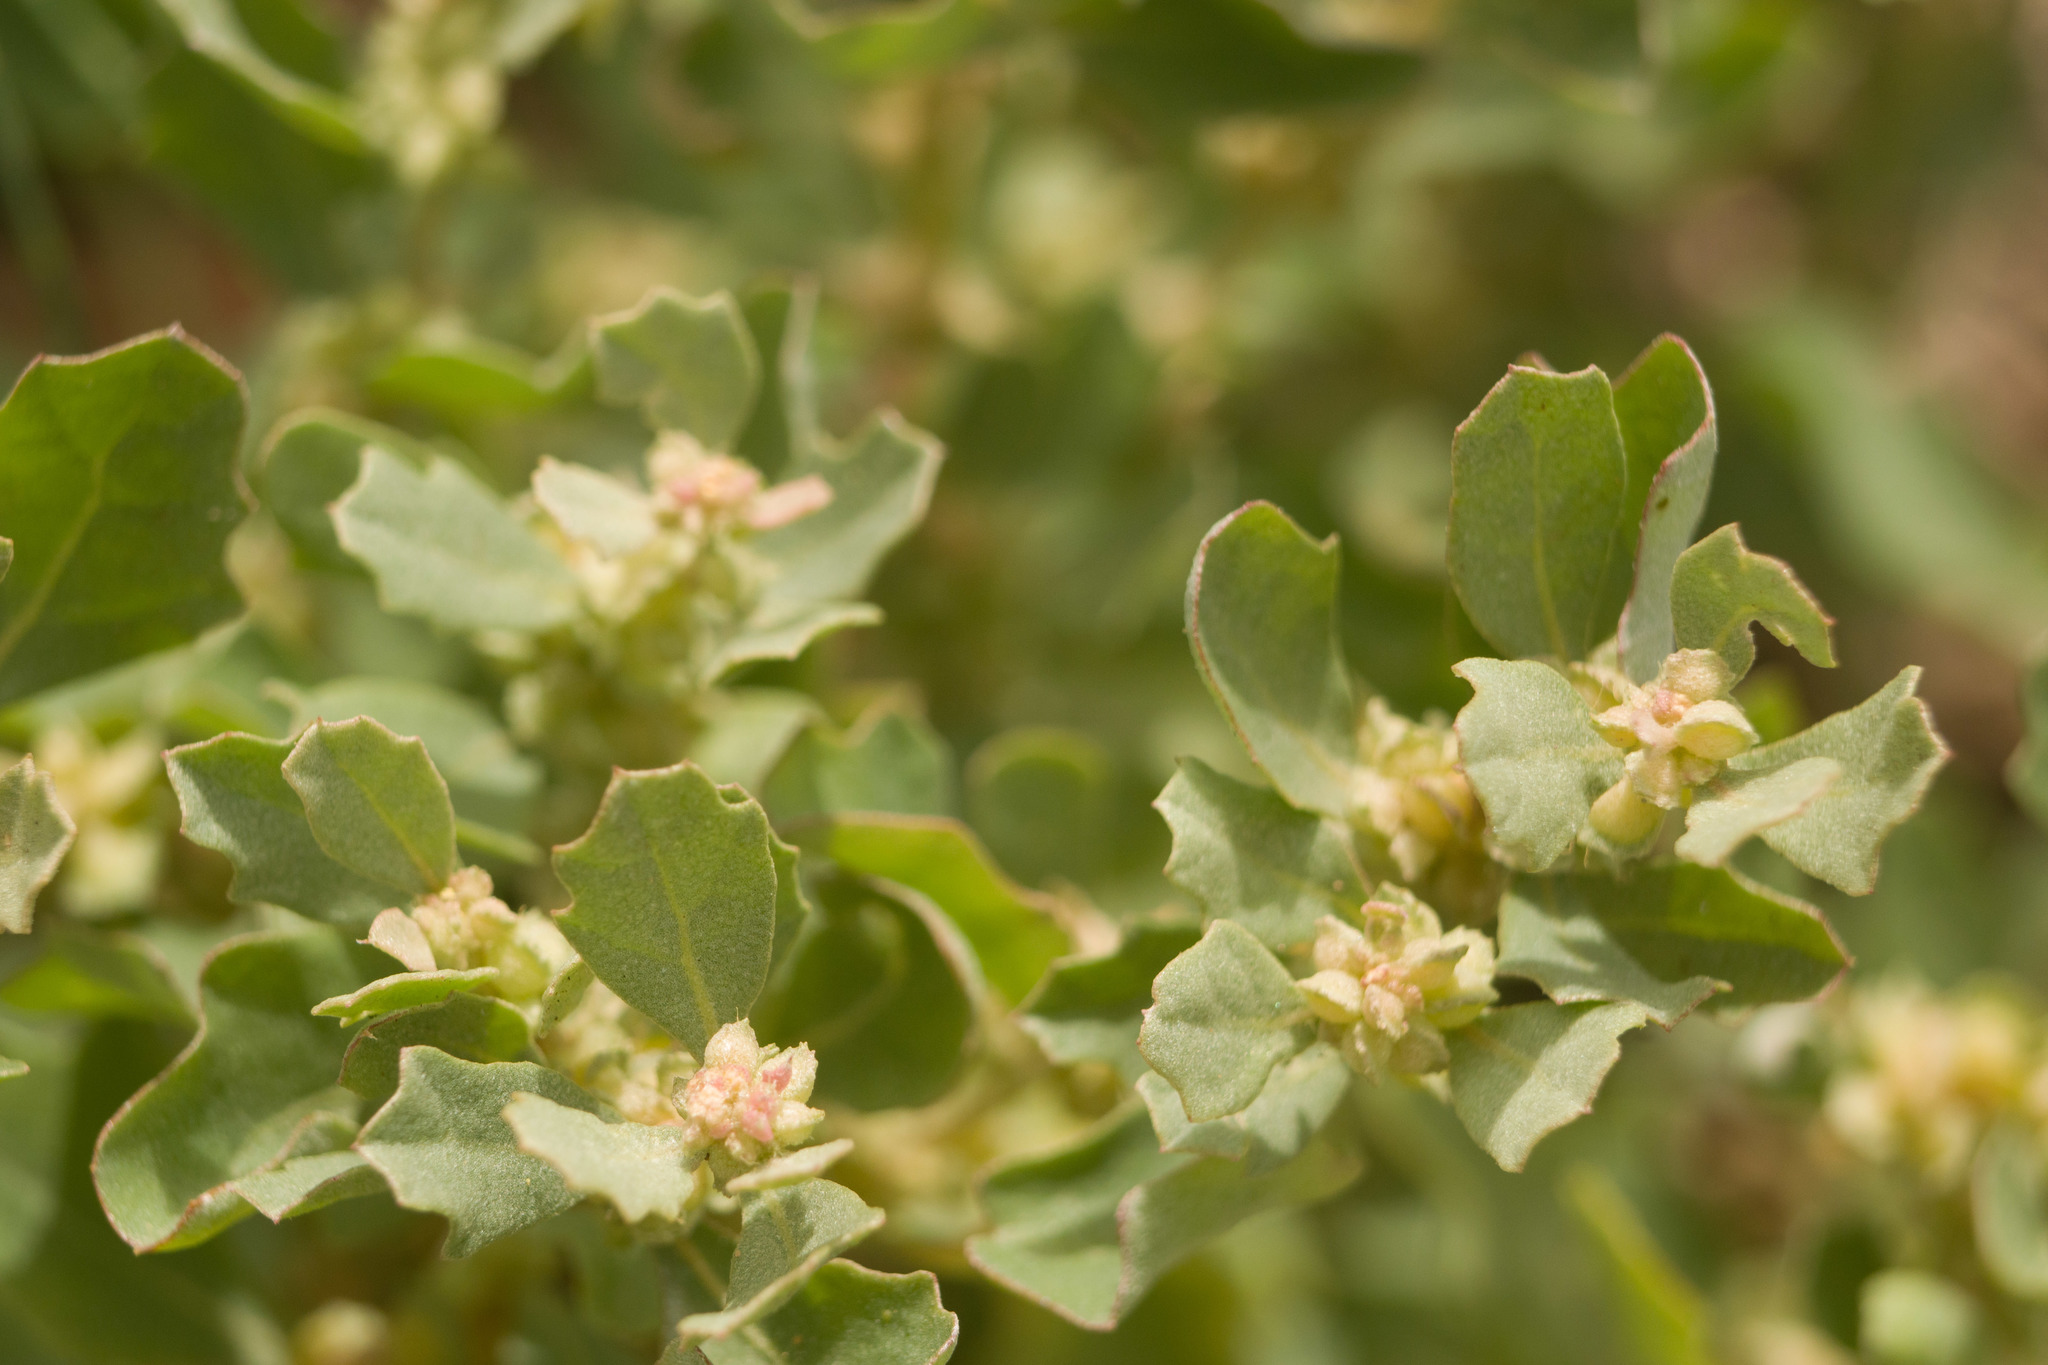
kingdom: Plantae
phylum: Tracheophyta
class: Magnoliopsida
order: Caryophyllales
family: Amaranthaceae
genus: Atriplex
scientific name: Atriplex muelleri
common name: Mueller's saltbush
